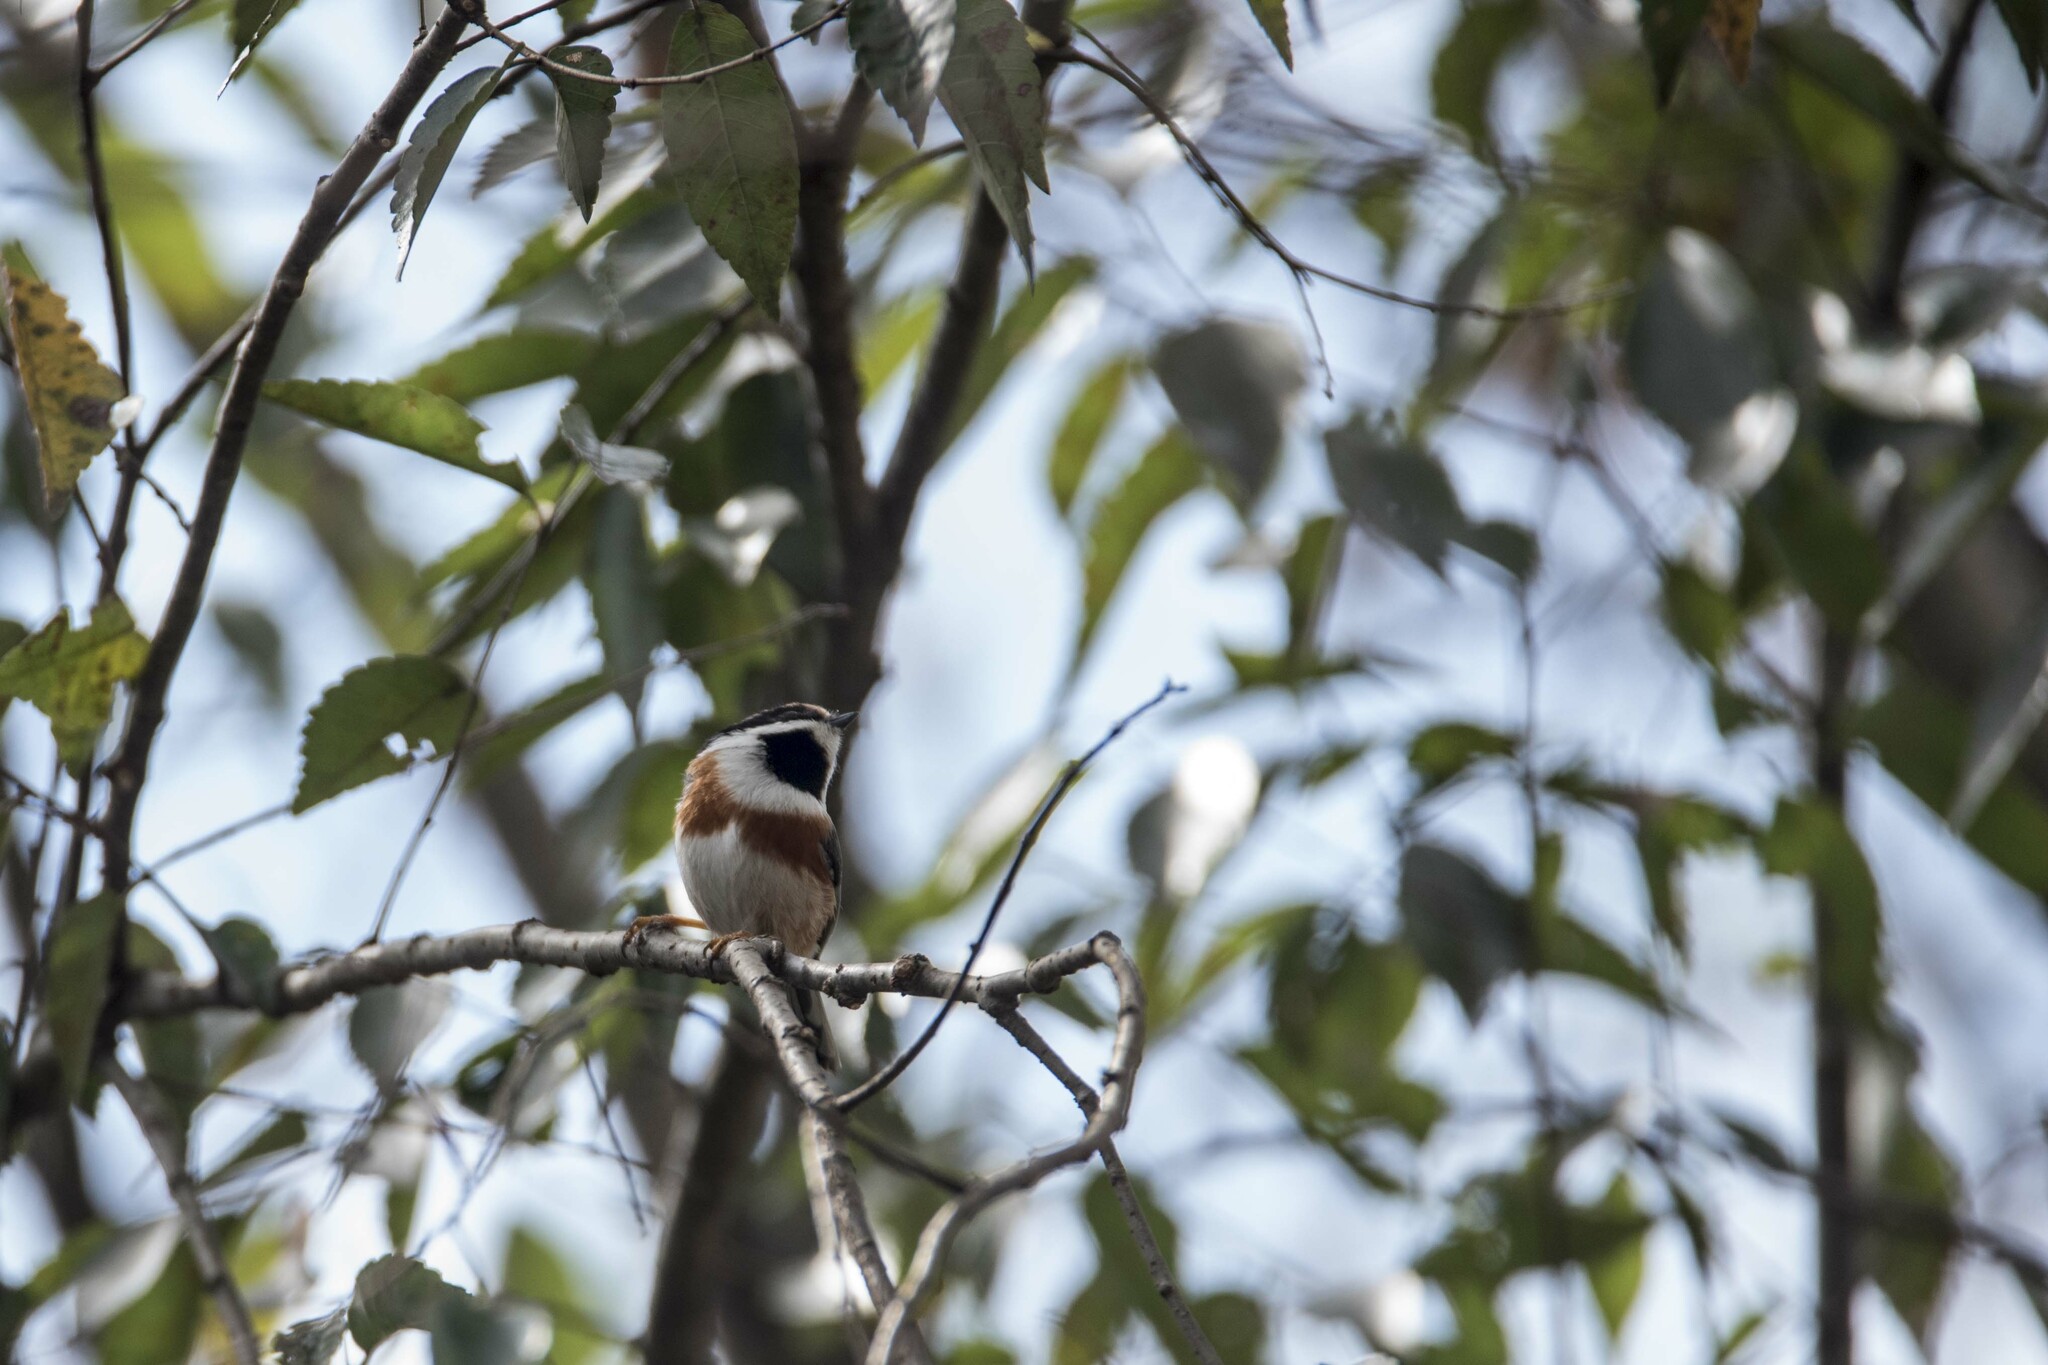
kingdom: Animalia
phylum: Chordata
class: Aves
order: Passeriformes
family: Aegithalidae
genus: Aegithalos
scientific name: Aegithalos concinnus
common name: Black-throated bushtit
